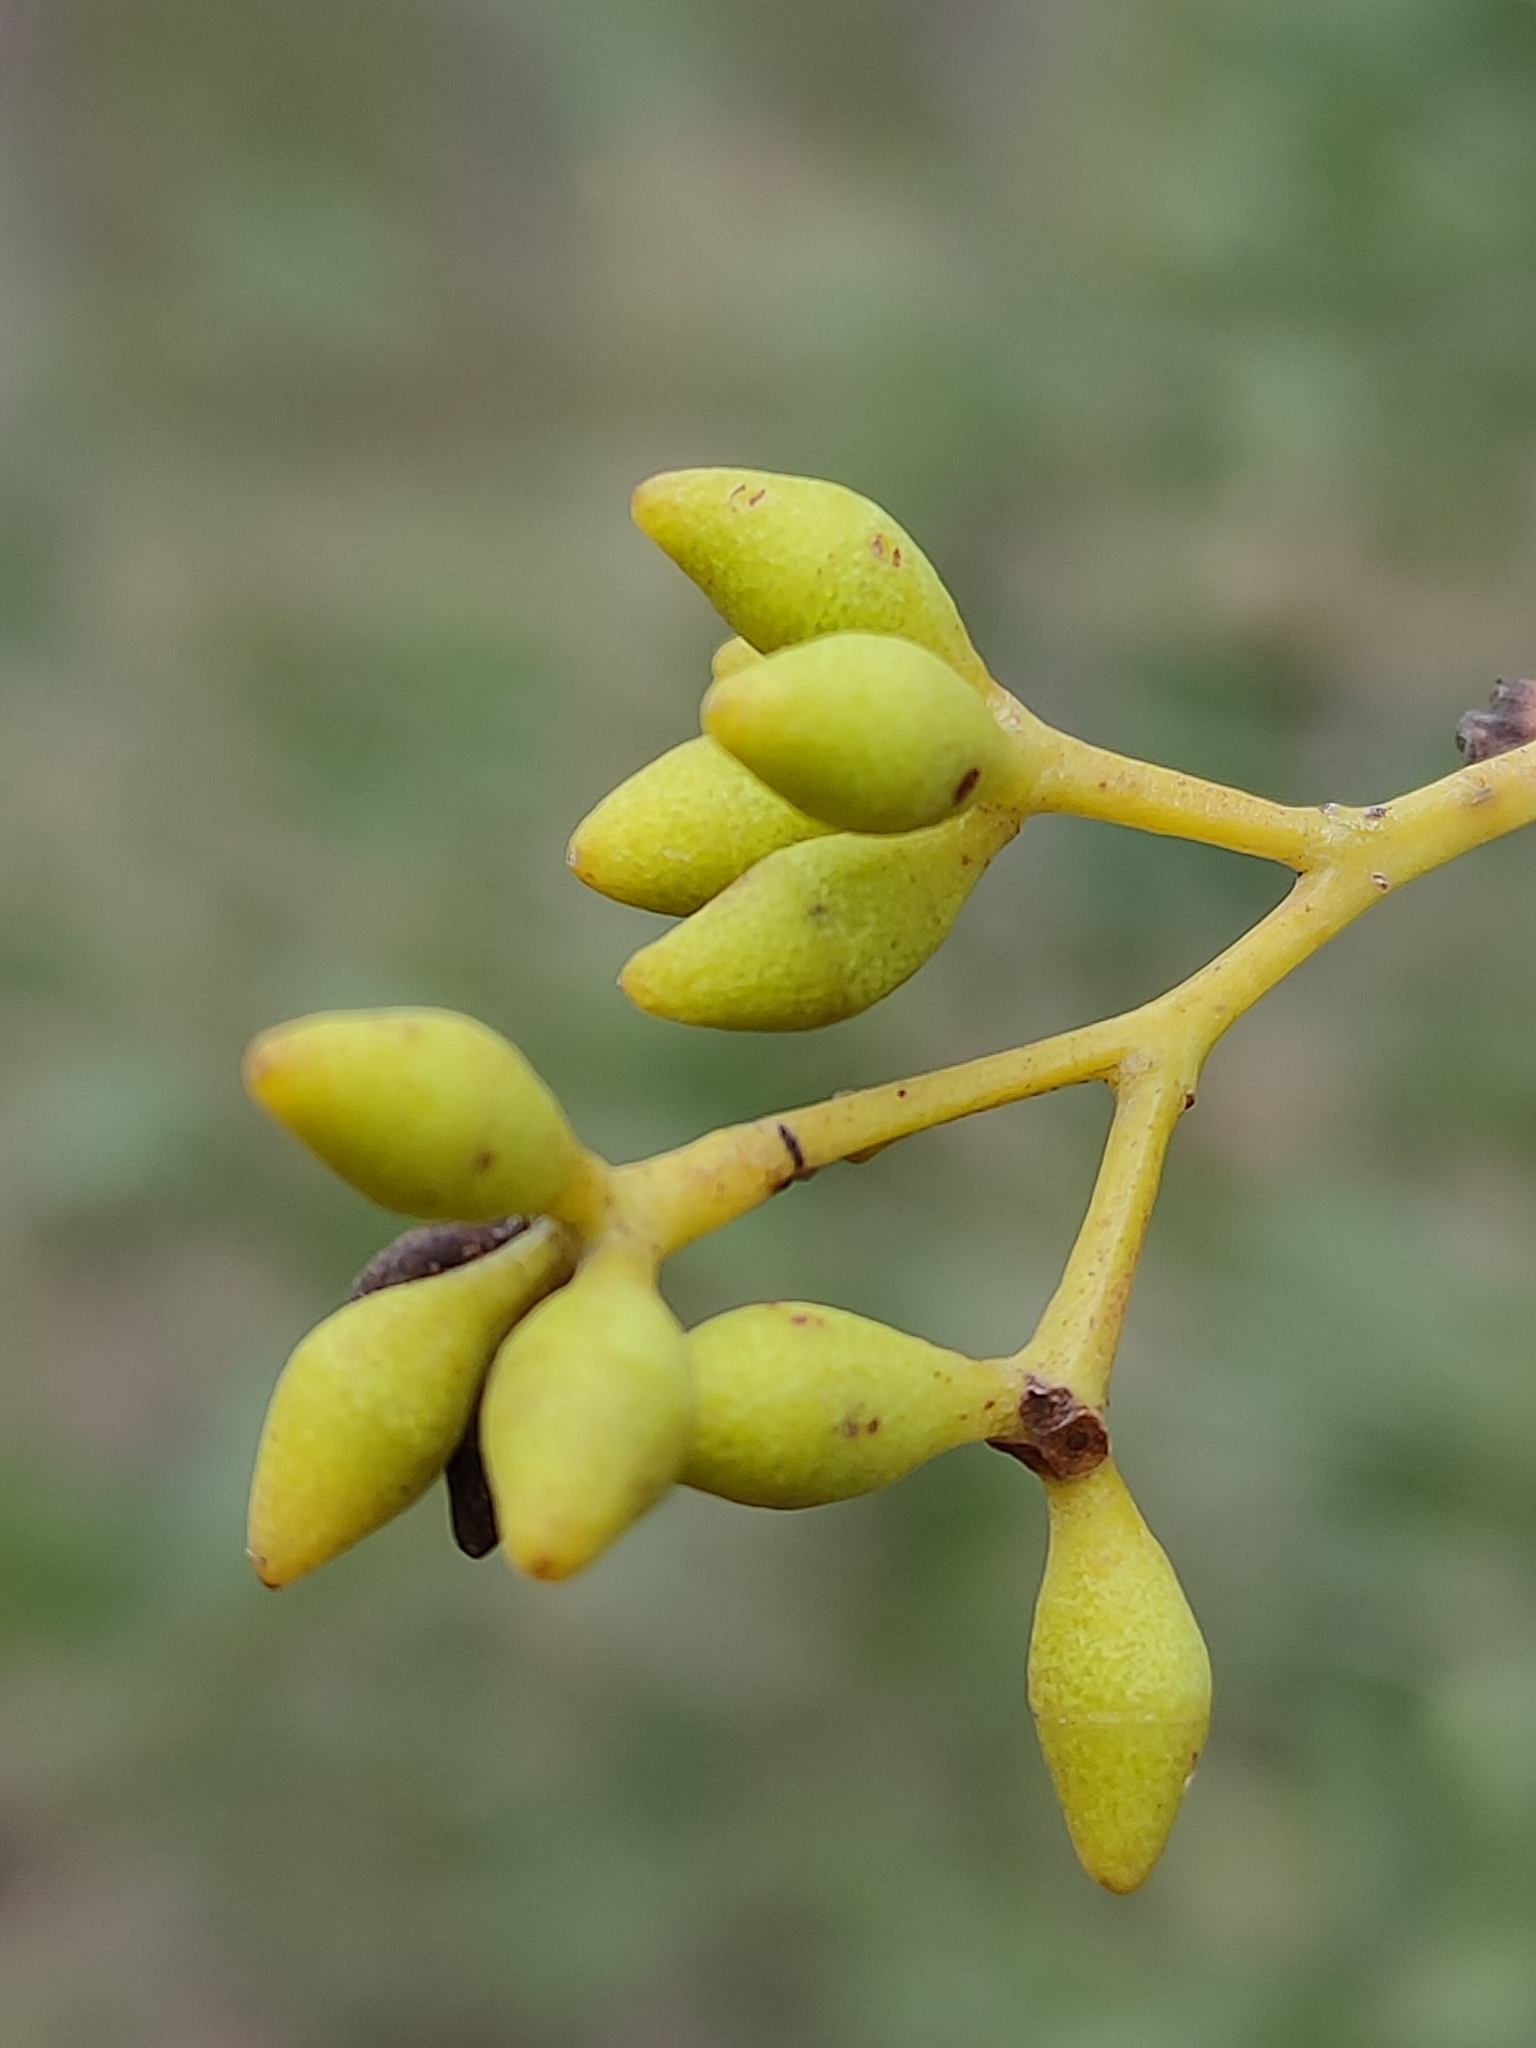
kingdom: Plantae
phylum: Tracheophyta
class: Magnoliopsida
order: Myrtales
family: Myrtaceae
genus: Eucalyptus
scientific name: Eucalyptus siderophloia
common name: Broad-leafed-ironbark
